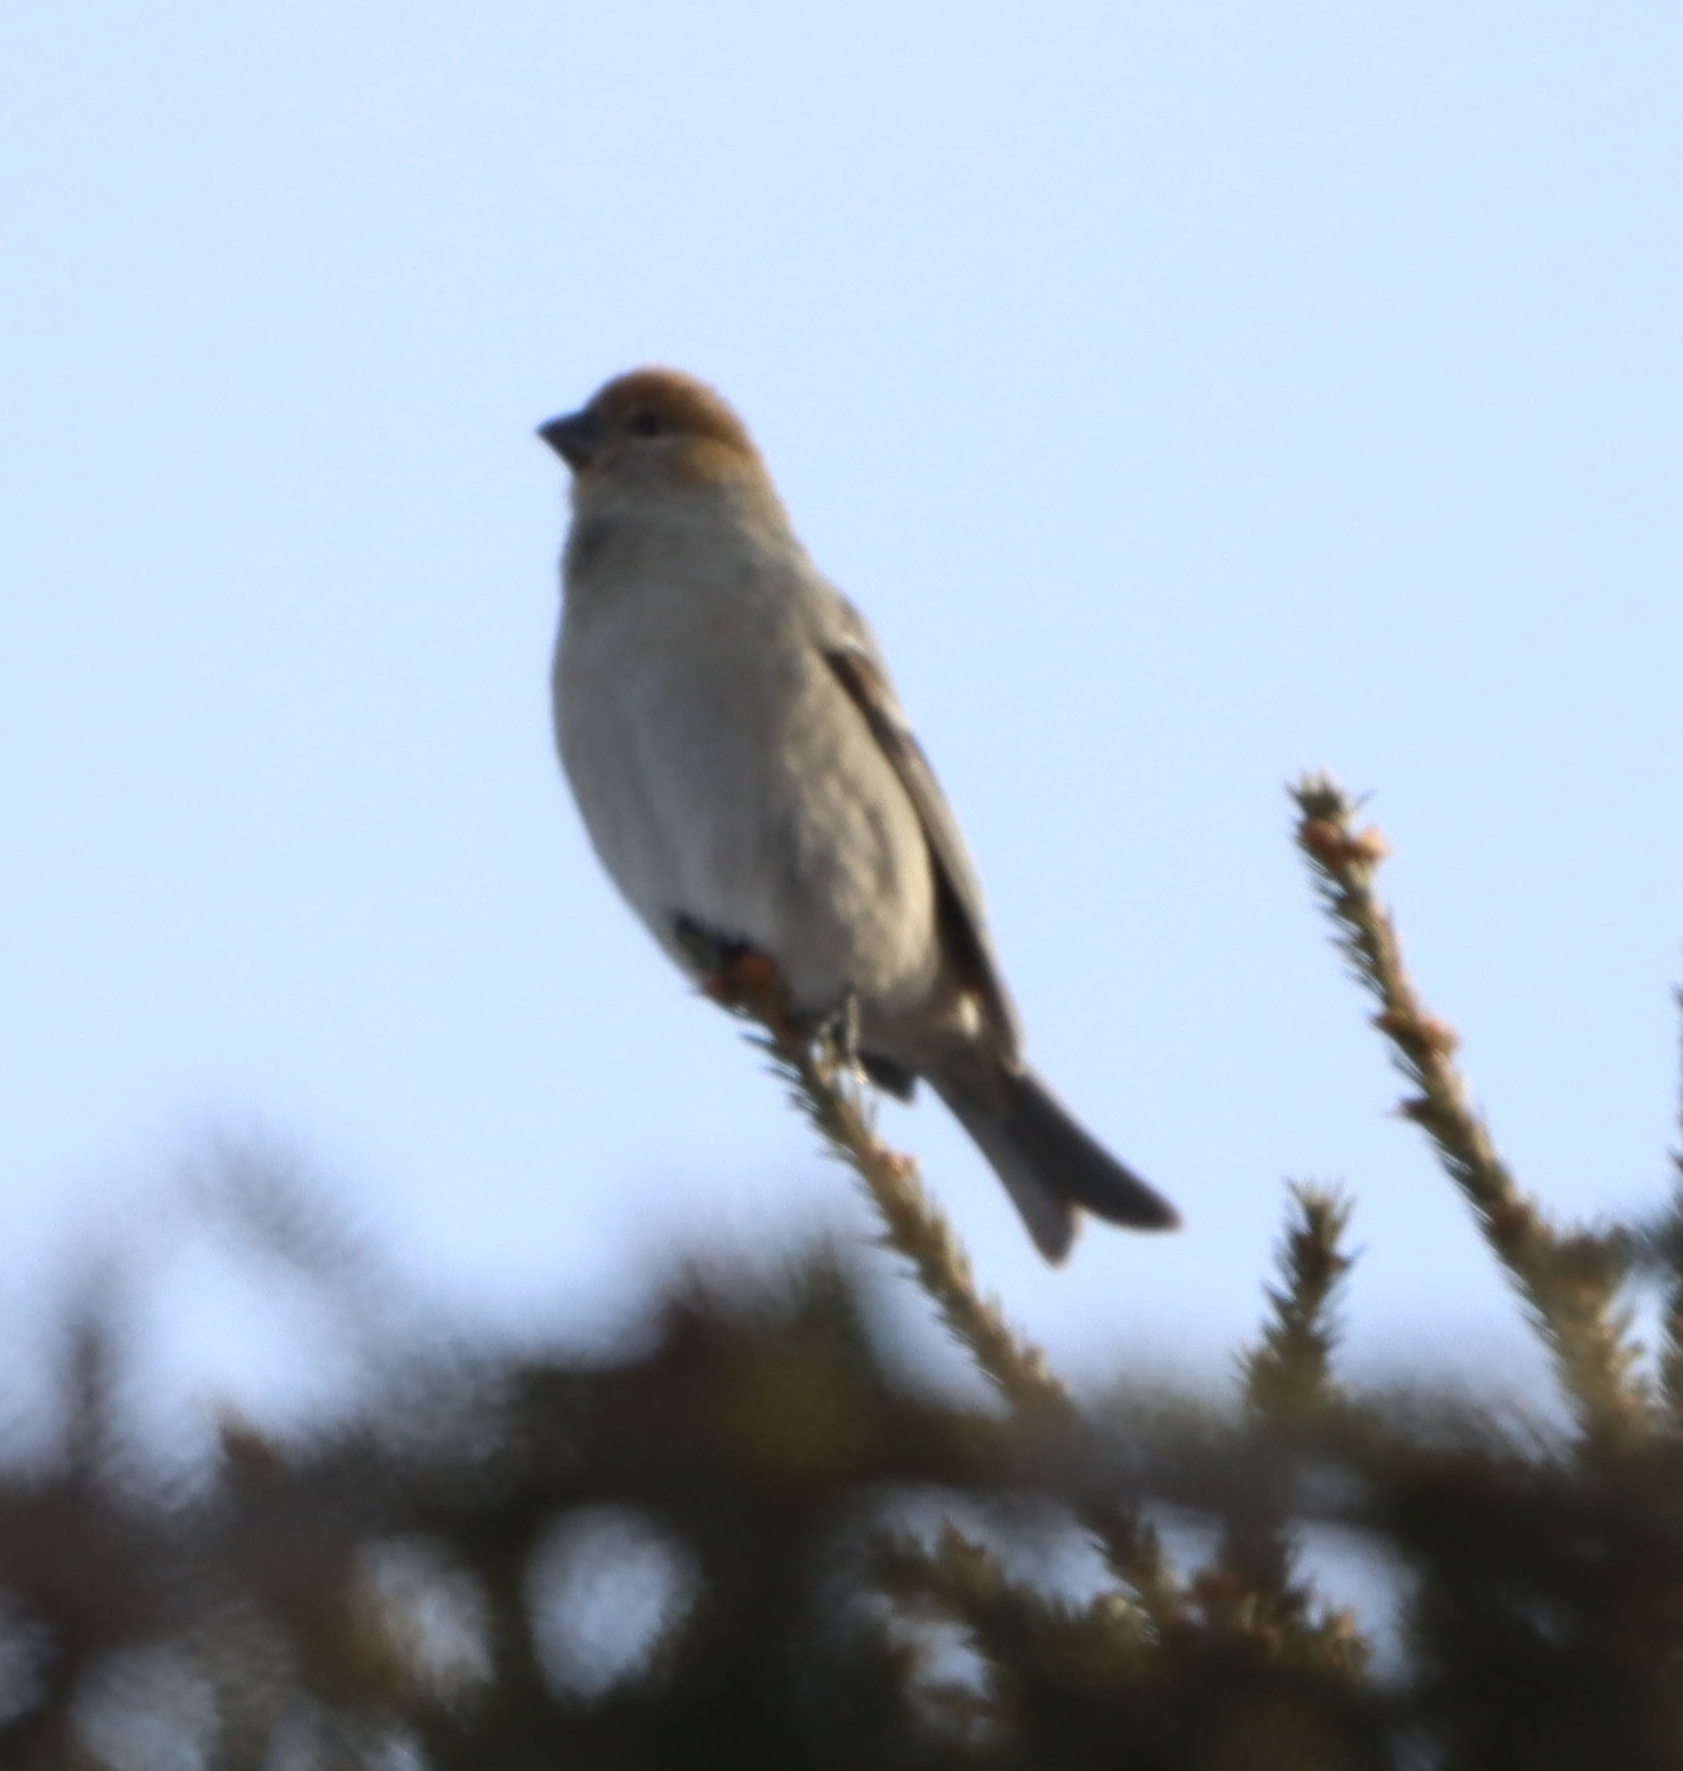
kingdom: Animalia
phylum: Chordata
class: Aves
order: Passeriformes
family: Fringillidae
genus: Pinicola
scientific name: Pinicola enucleator
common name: Pine grosbeak
